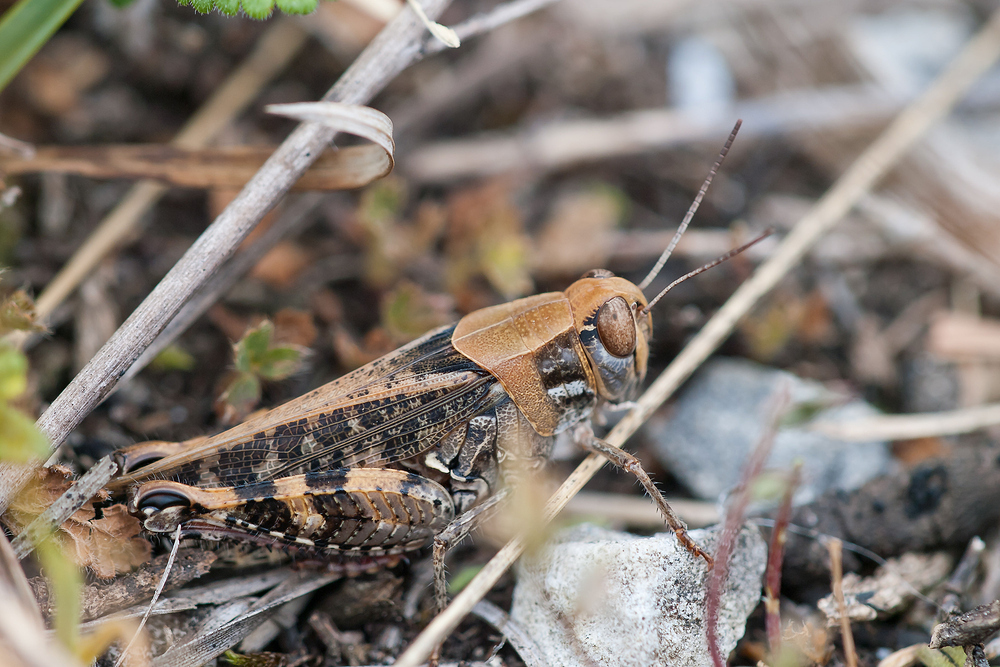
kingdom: Animalia
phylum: Arthropoda
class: Insecta
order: Orthoptera
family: Acrididae
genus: Calliptamus
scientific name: Calliptamus italicus
